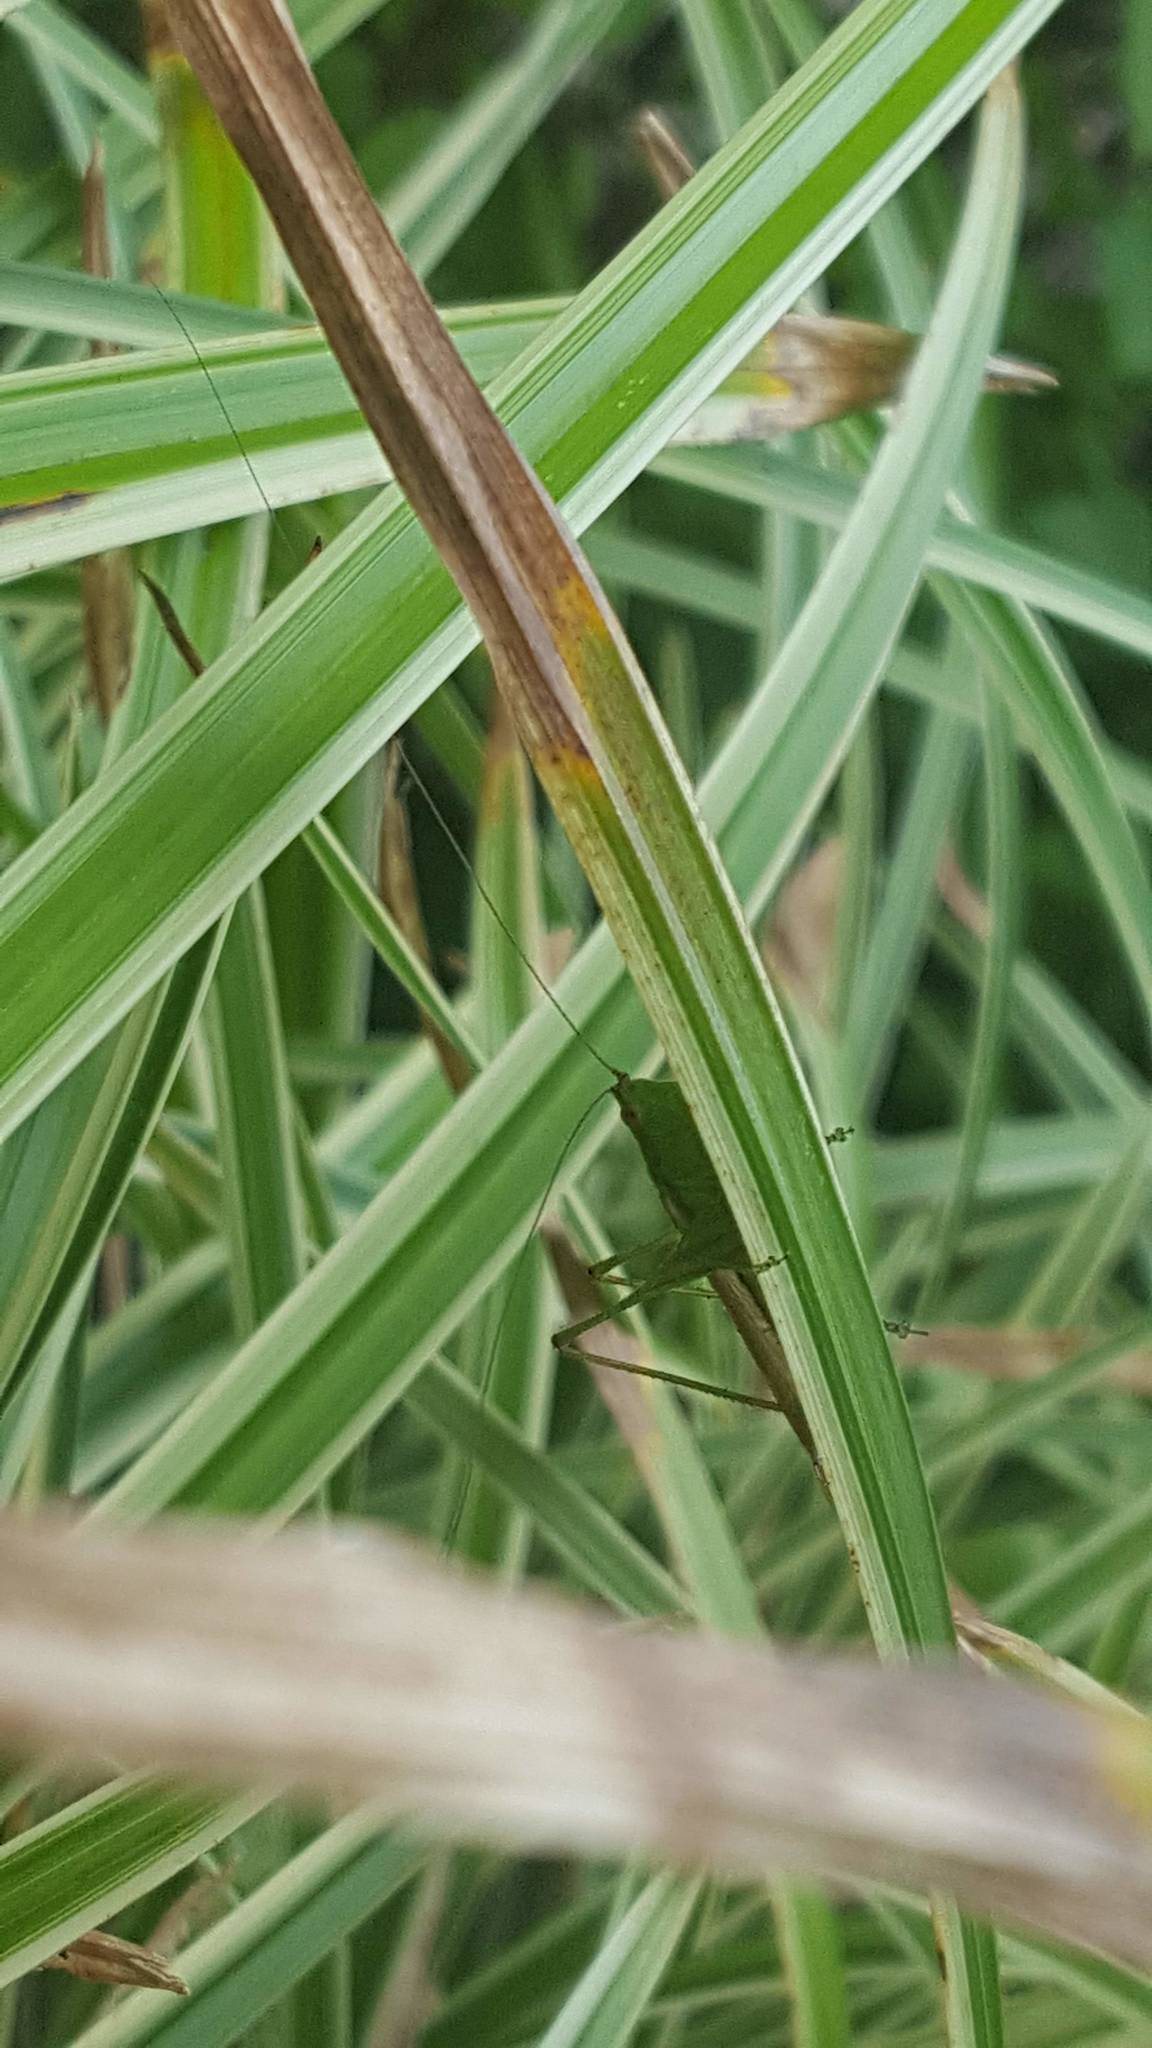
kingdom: Animalia
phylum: Arthropoda
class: Insecta
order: Orthoptera
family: Tettigoniidae
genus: Conocephalus
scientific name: Conocephalus
